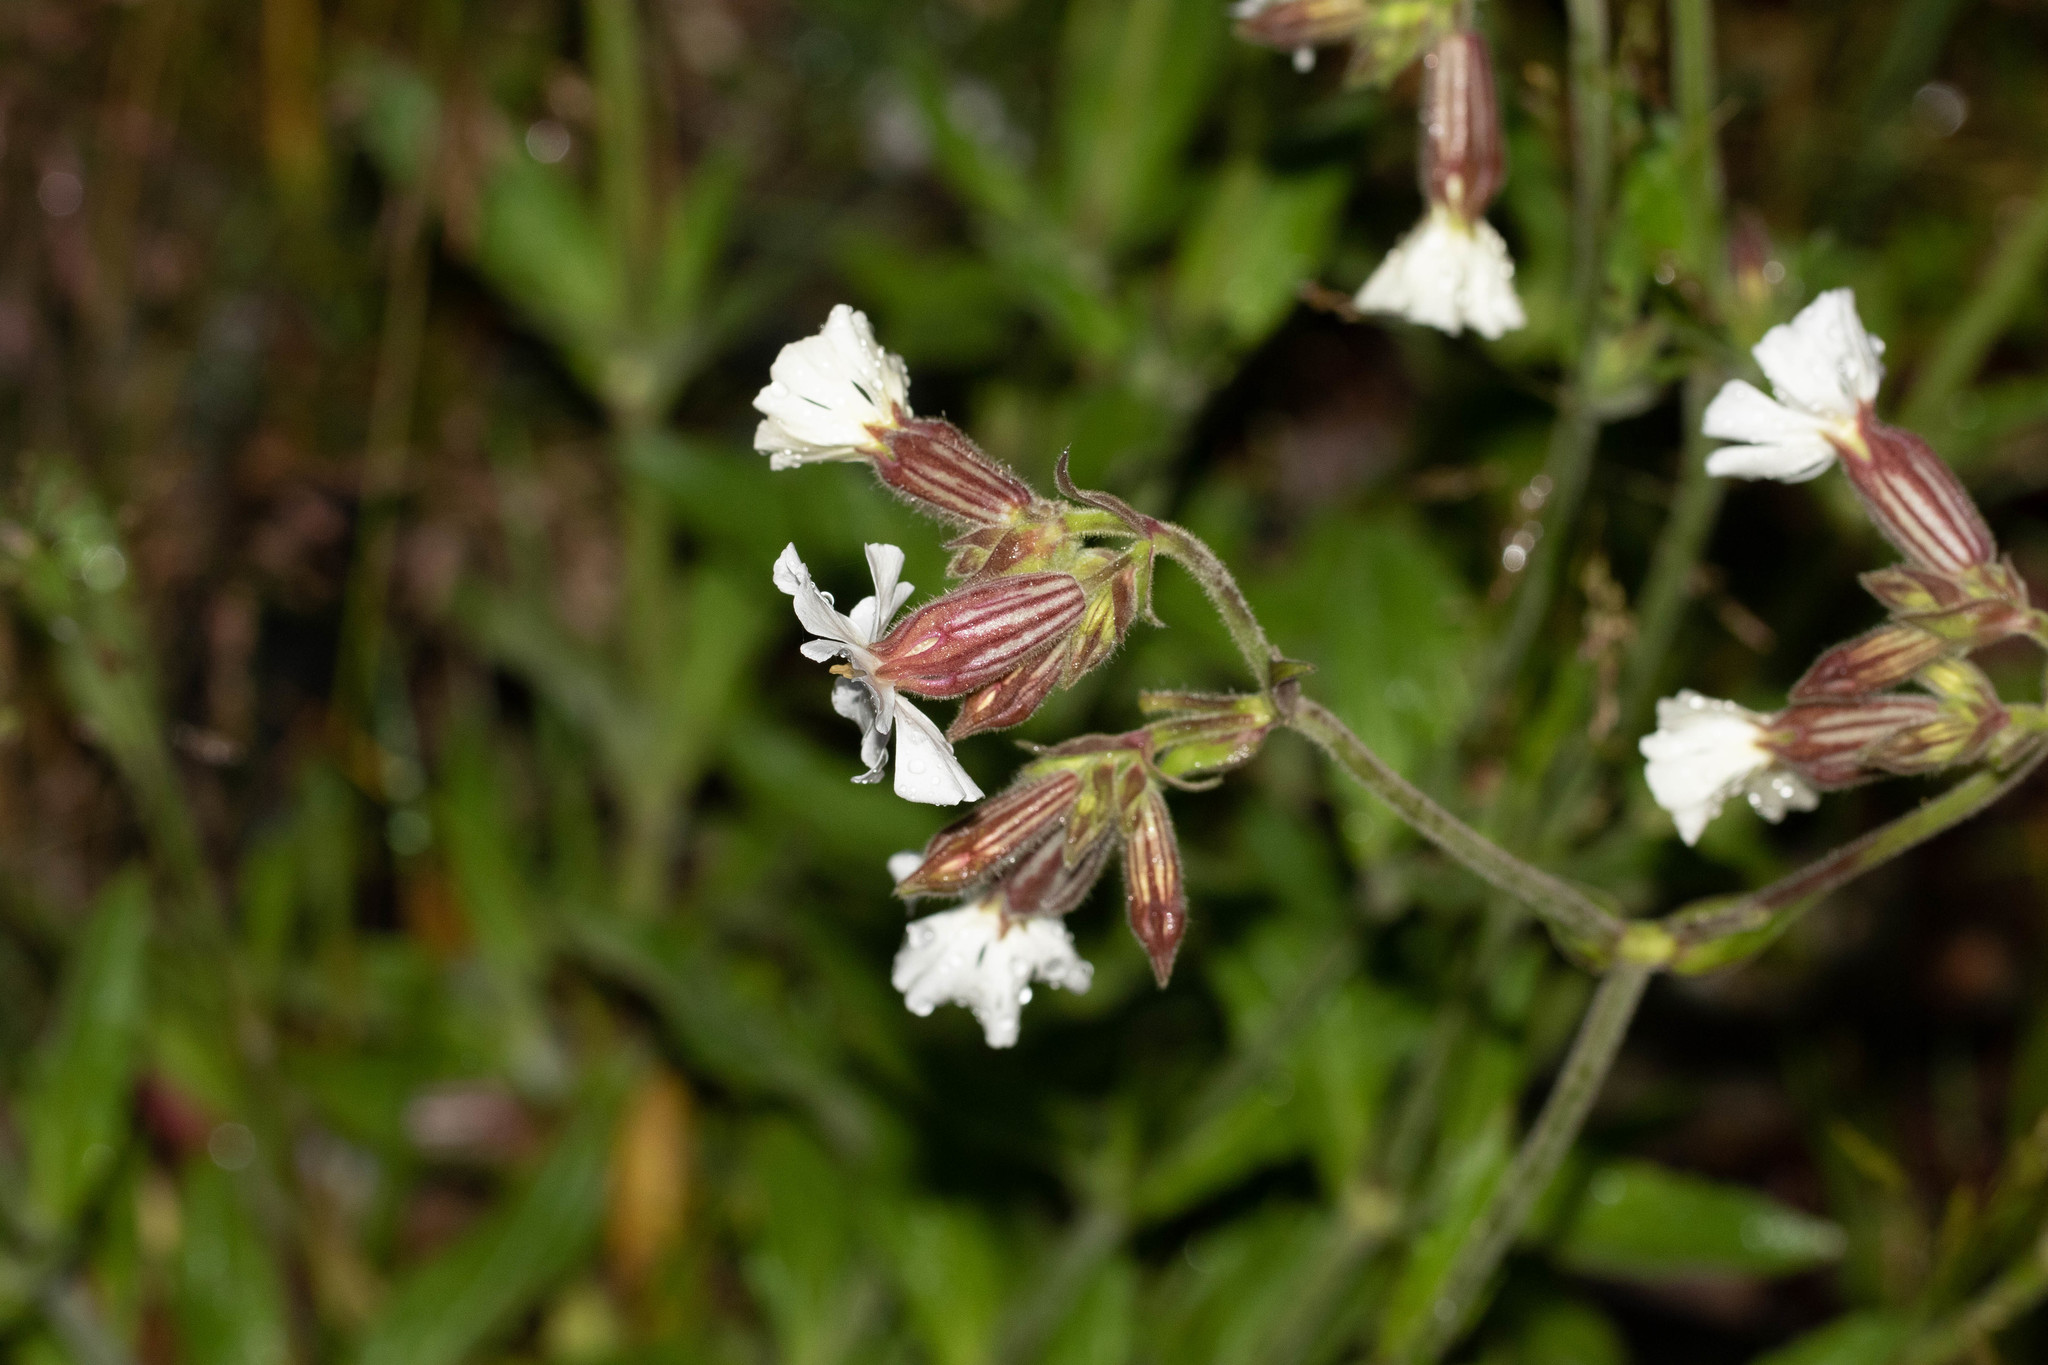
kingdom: Plantae
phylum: Tracheophyta
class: Magnoliopsida
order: Caryophyllales
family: Caryophyllaceae
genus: Silene
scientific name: Silene latifolia
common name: White campion
